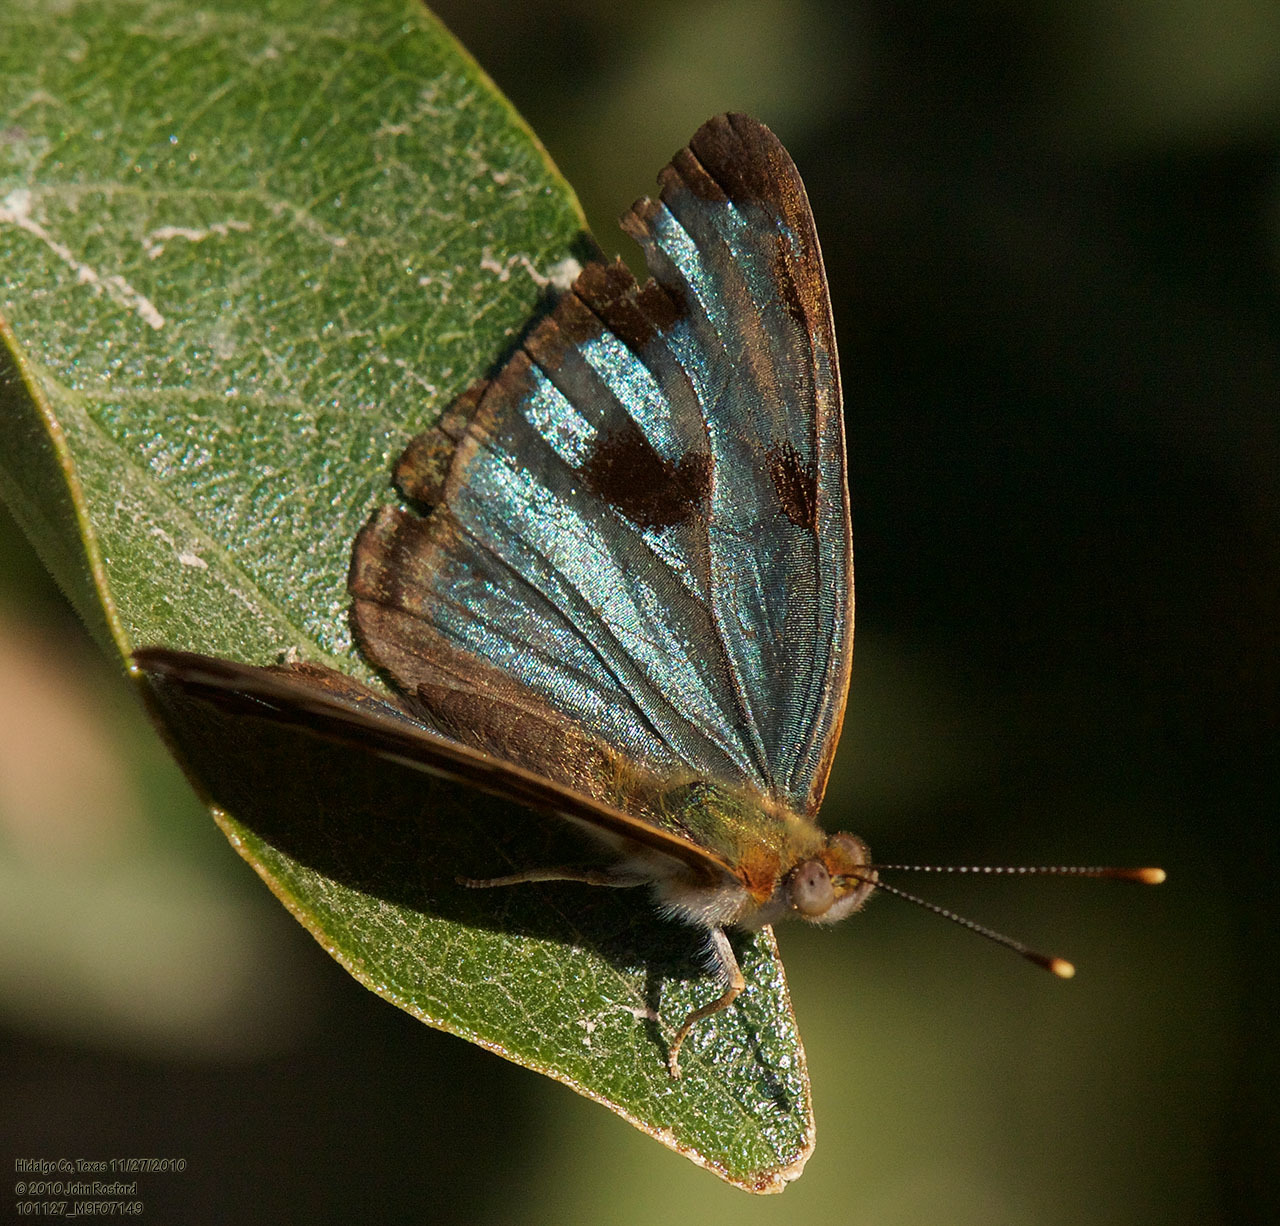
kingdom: Animalia
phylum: Arthropoda
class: Insecta
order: Lepidoptera
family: Nymphalidae
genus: Dynamine
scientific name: Dynamine mylitta
